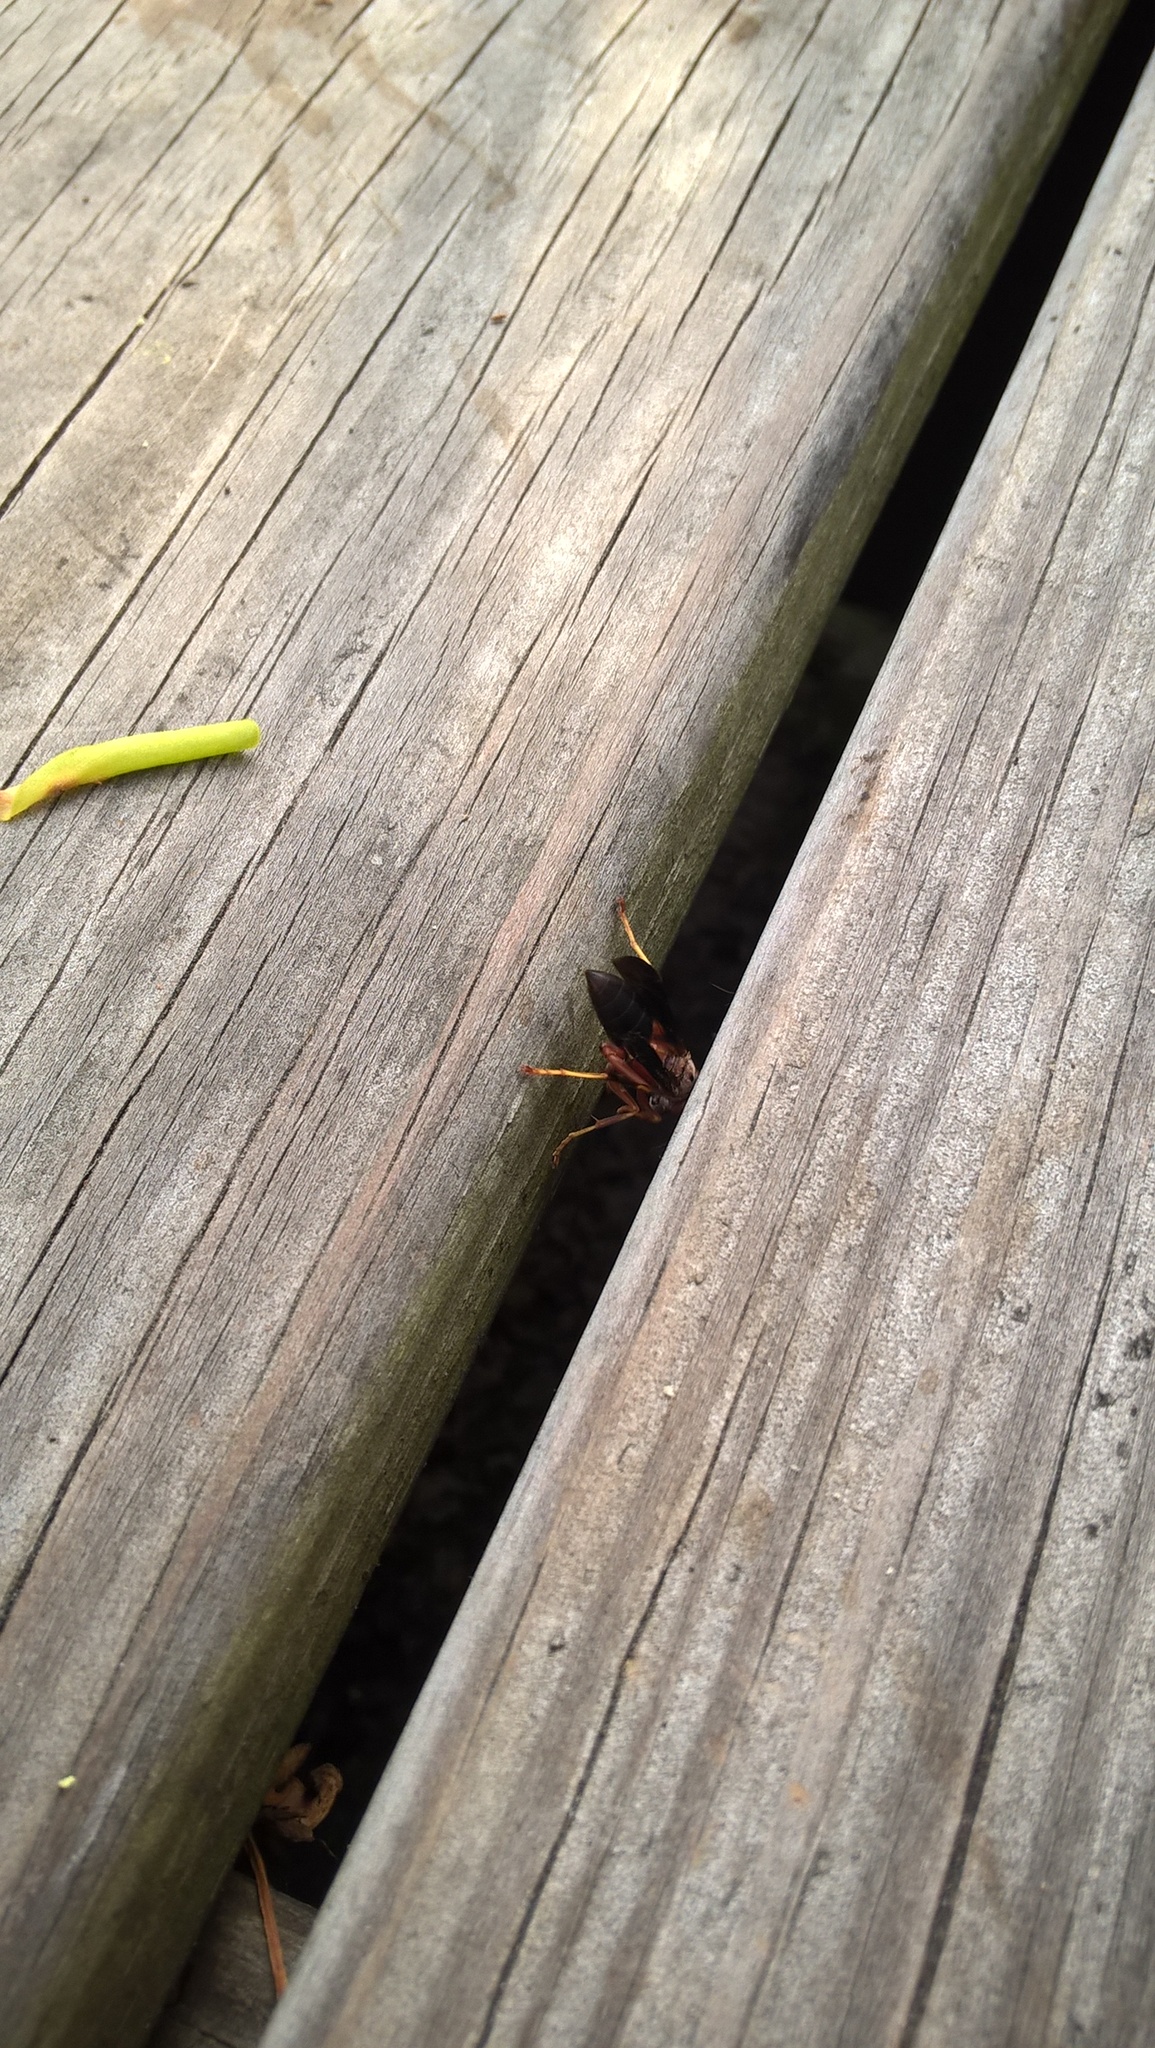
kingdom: Animalia
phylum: Arthropoda
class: Insecta
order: Hymenoptera
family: Vespidae
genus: Fuscopolistes
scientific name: Fuscopolistes
